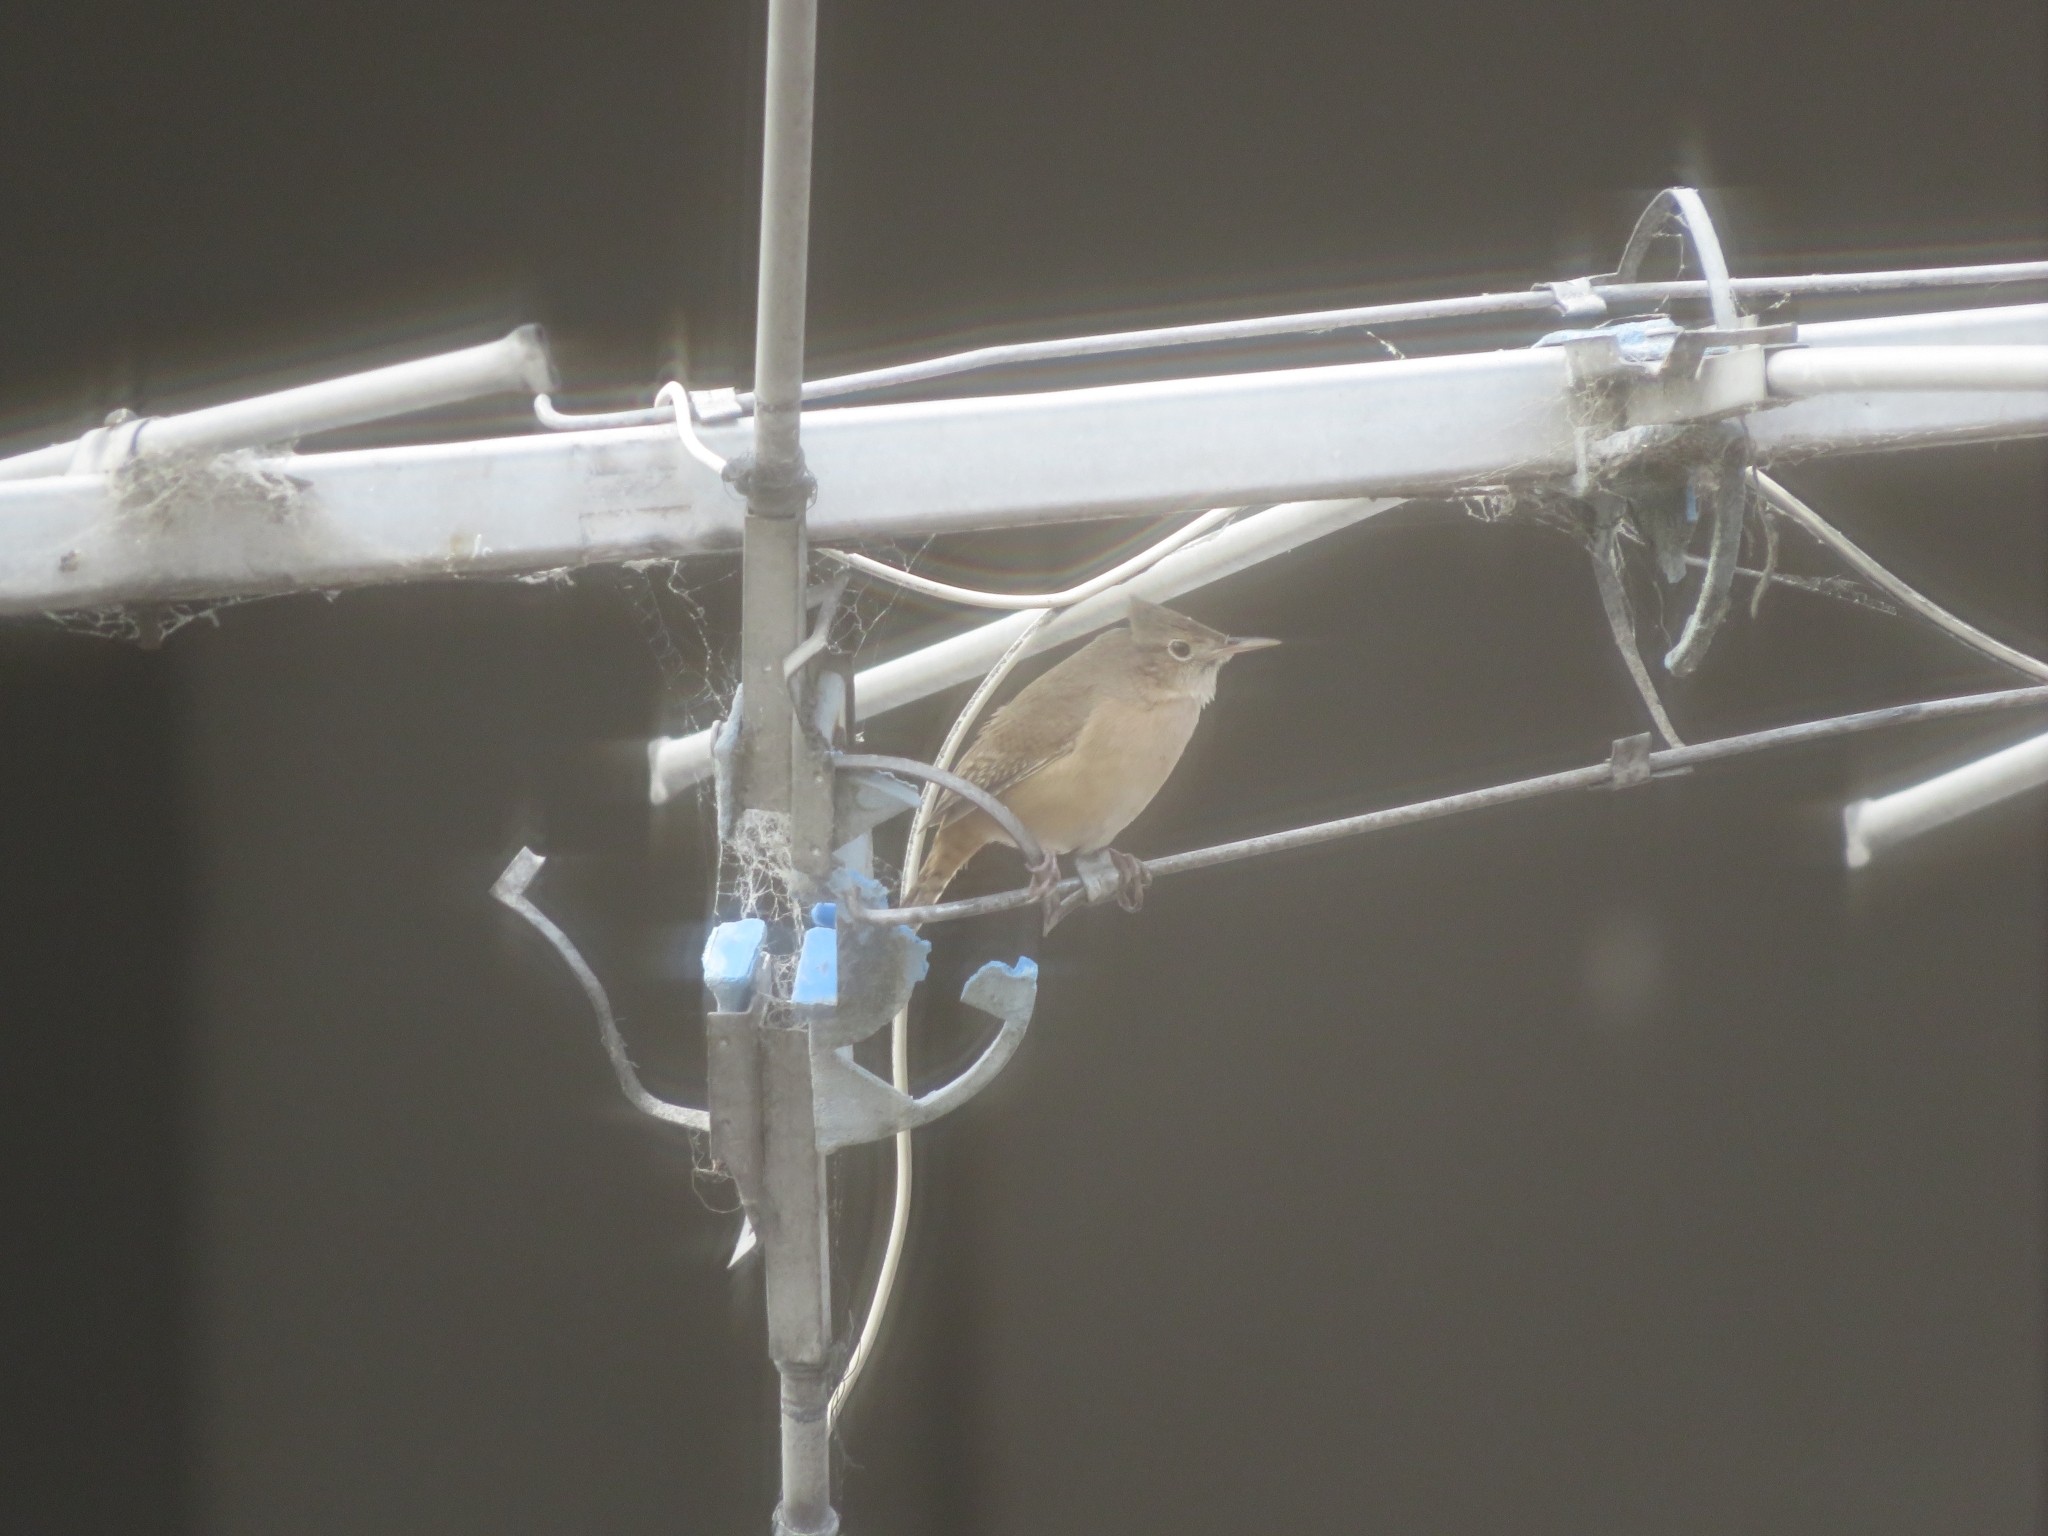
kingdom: Animalia
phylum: Chordata
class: Aves
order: Passeriformes
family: Troglodytidae
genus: Troglodytes
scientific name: Troglodytes aedon
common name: House wren
